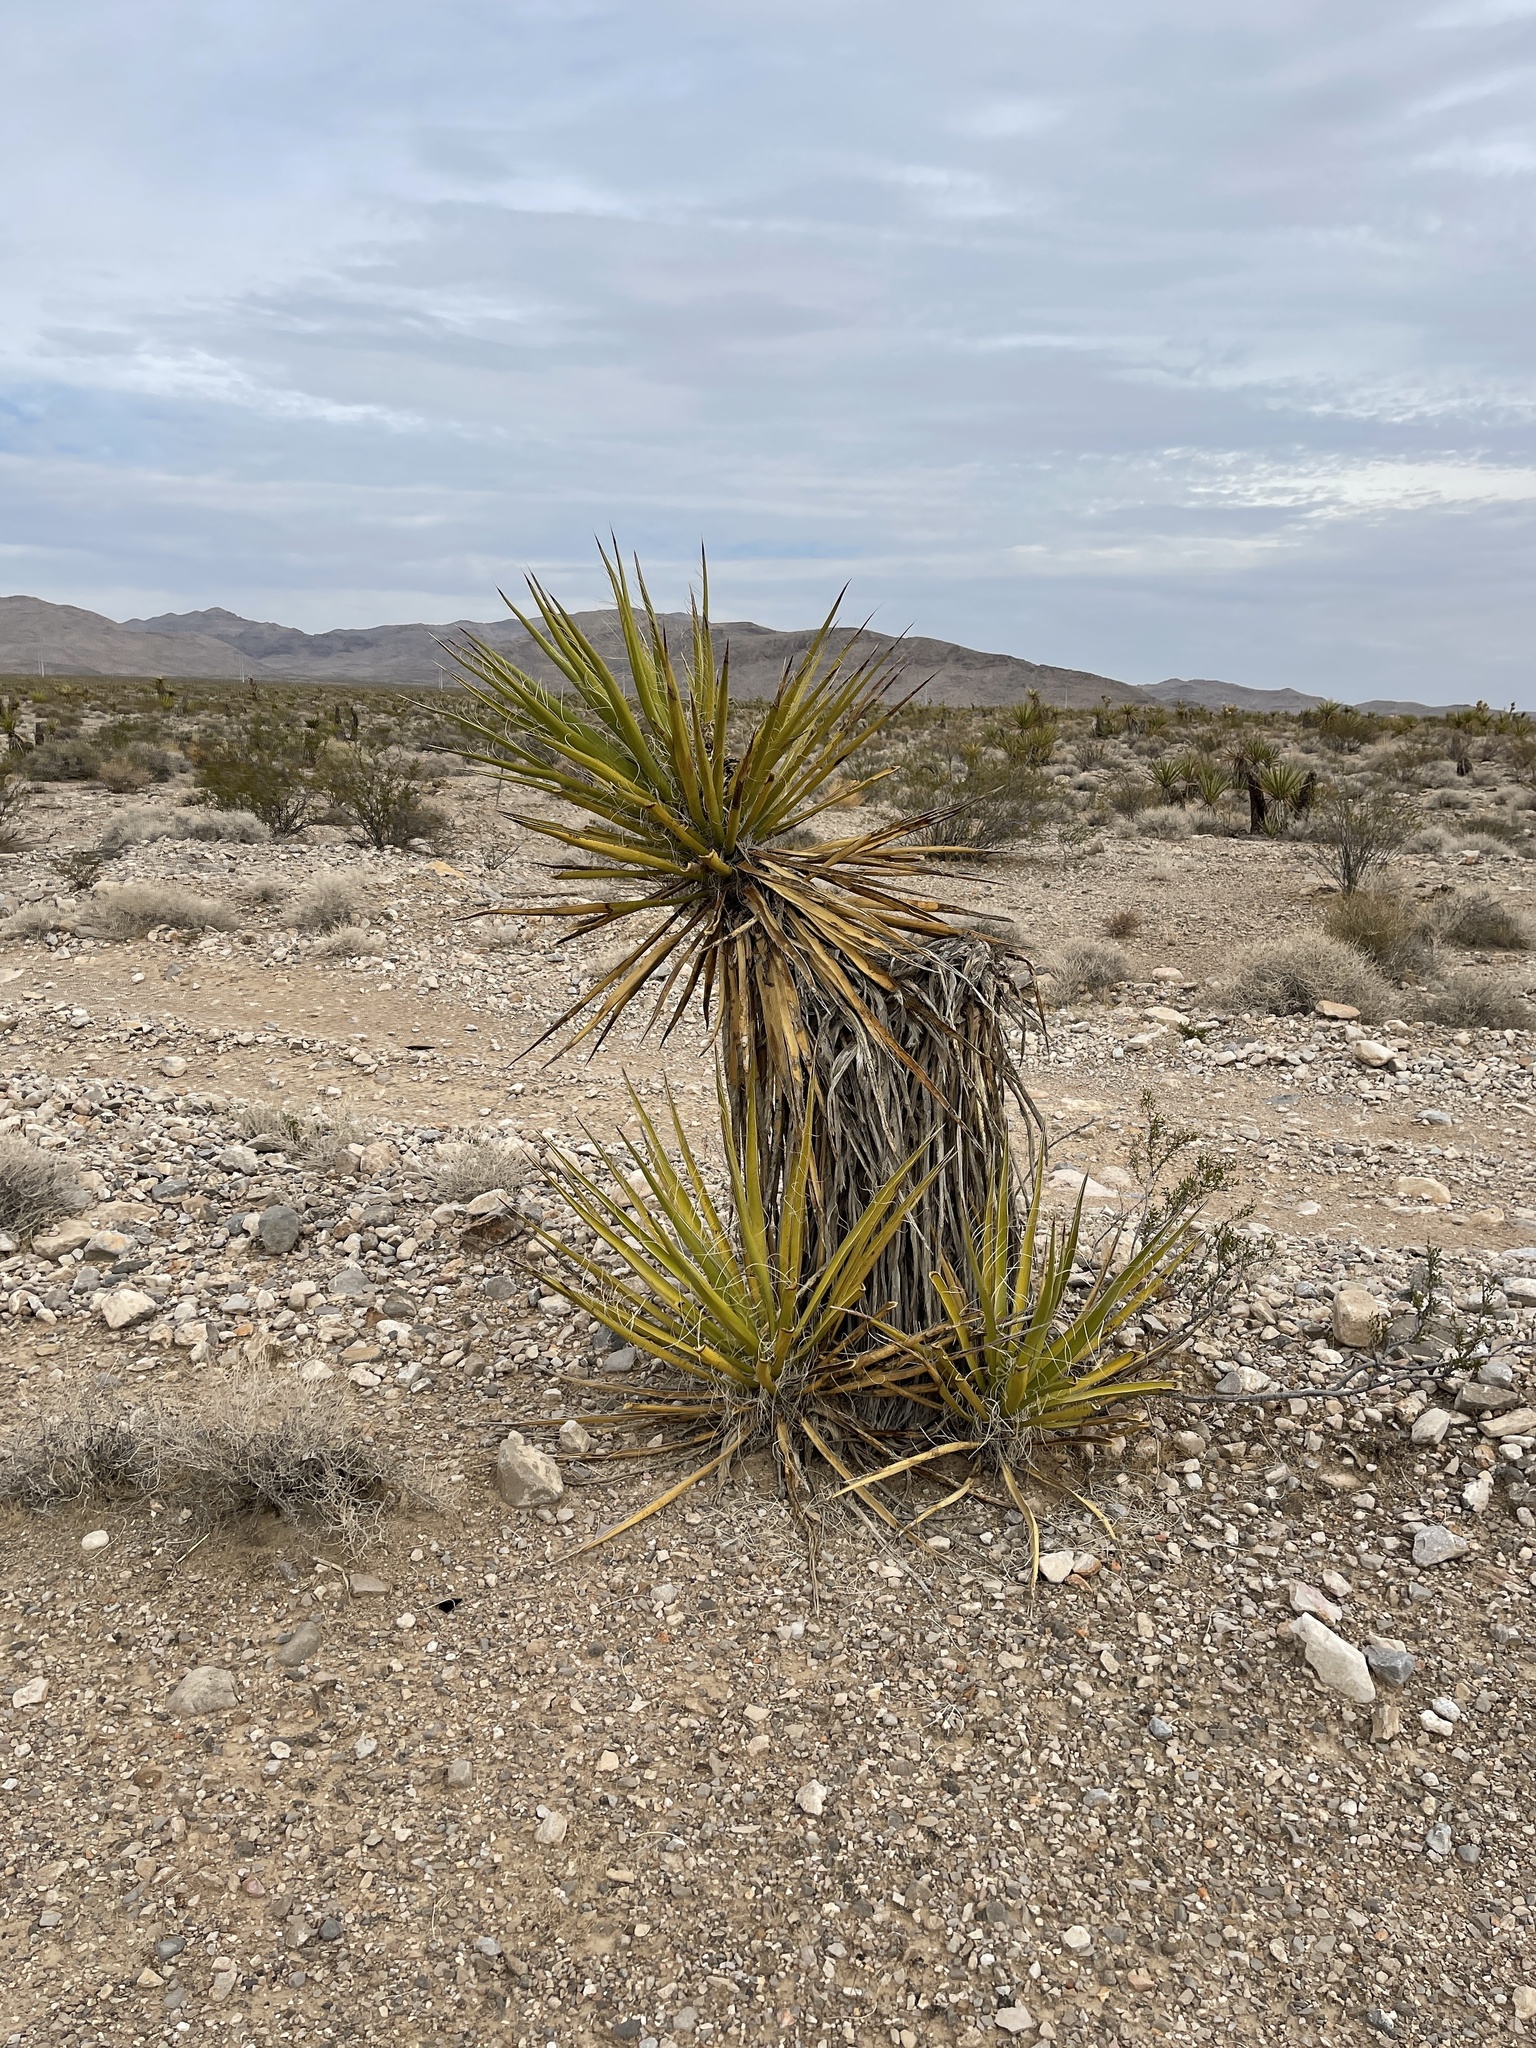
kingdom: Plantae
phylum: Tracheophyta
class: Liliopsida
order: Asparagales
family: Asparagaceae
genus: Yucca
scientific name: Yucca schidigera
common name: Mojave yucca
